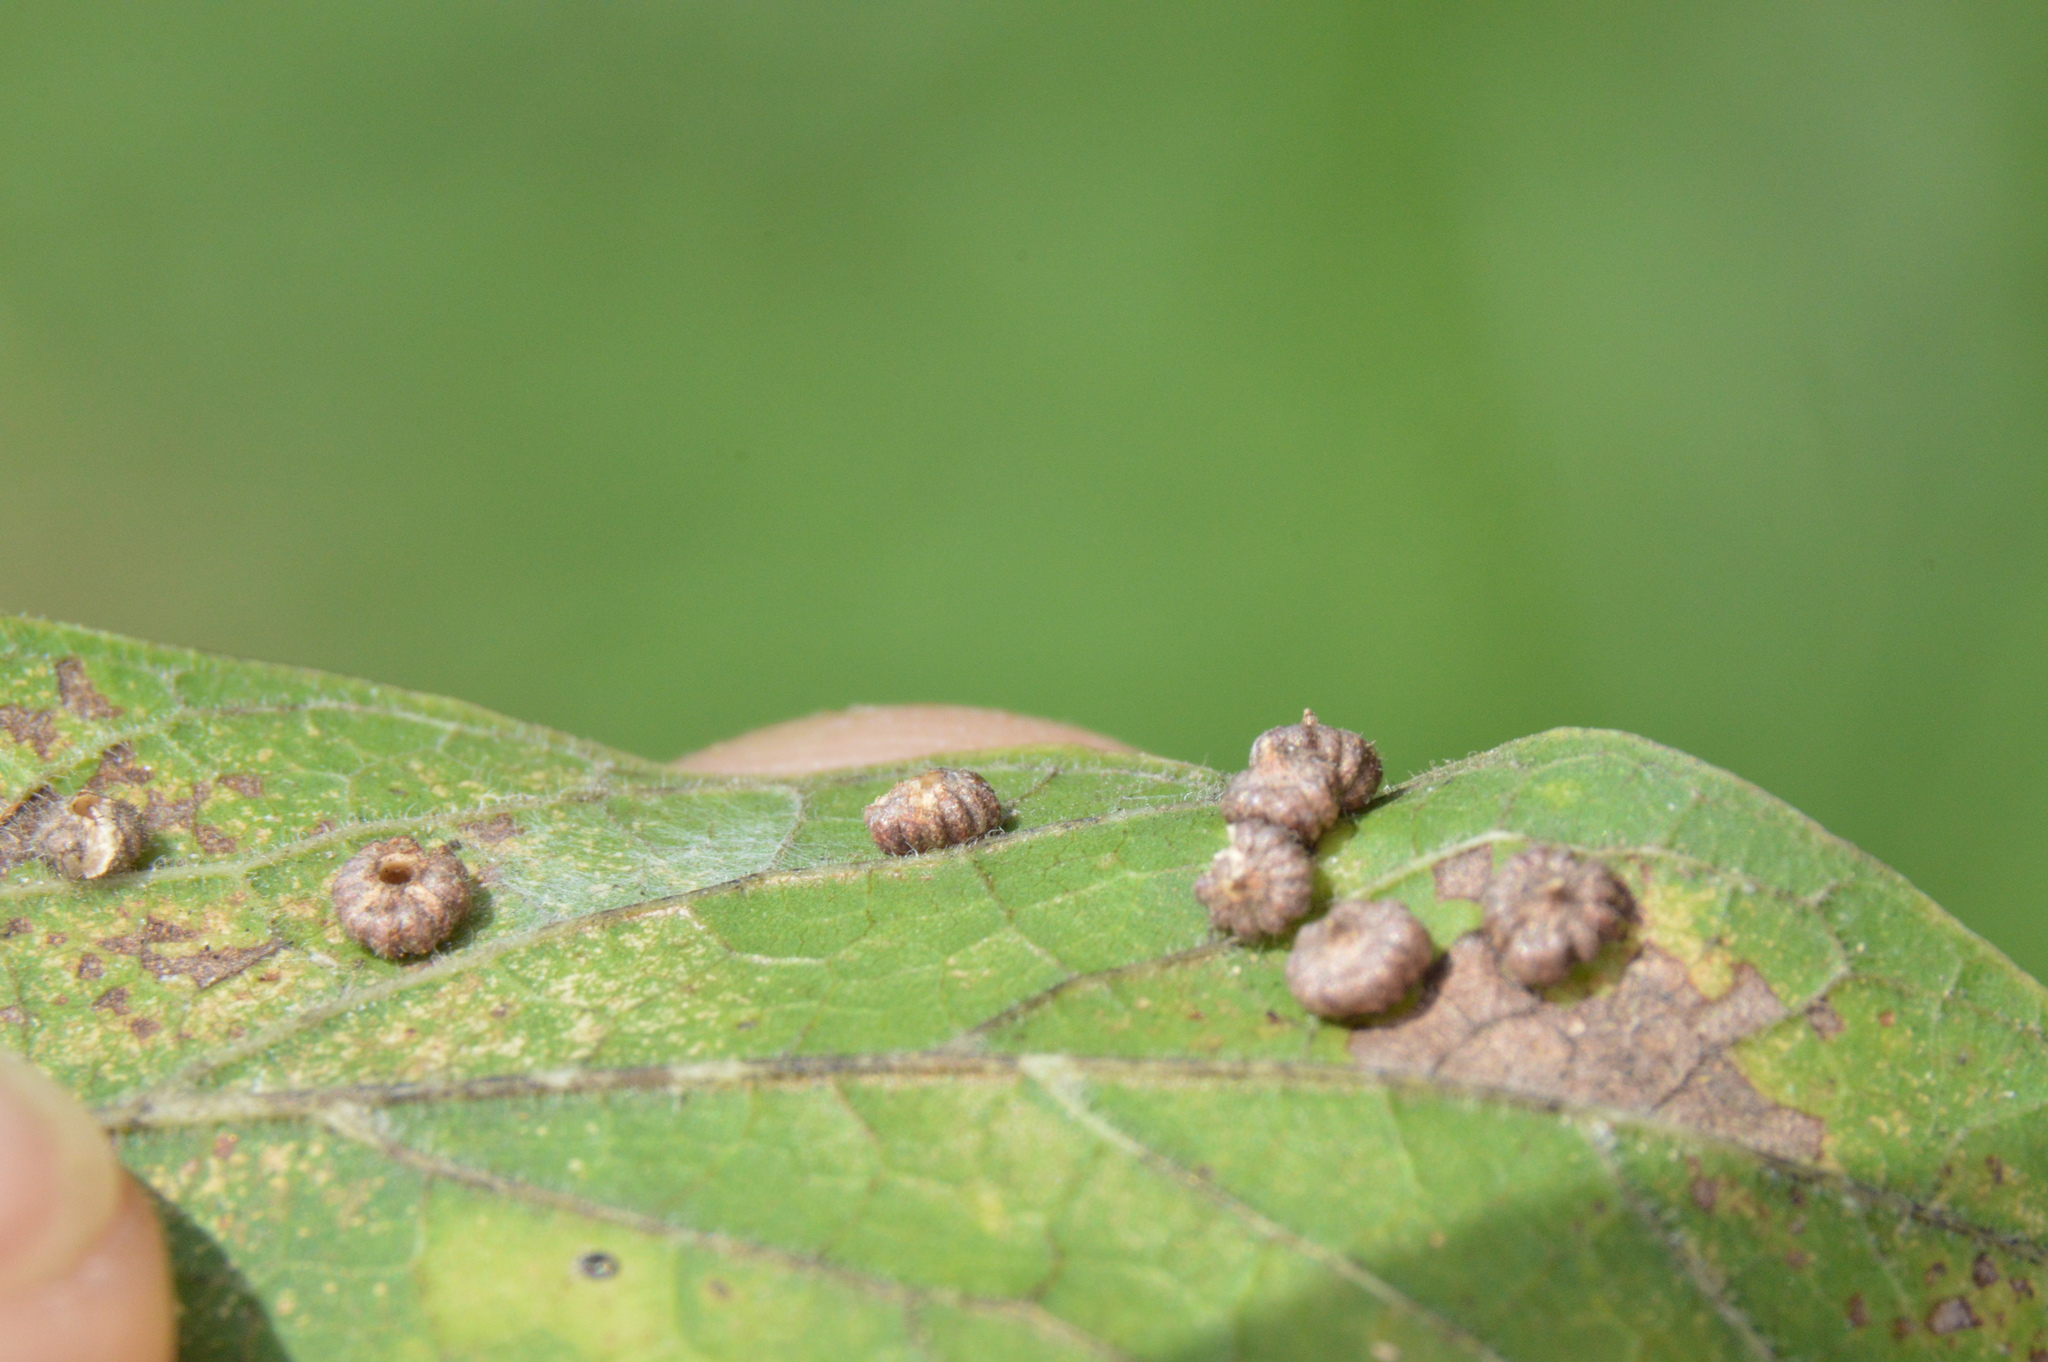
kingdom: Animalia
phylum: Arthropoda
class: Insecta
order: Diptera
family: Cecidomyiidae
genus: Celticecis
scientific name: Celticecis capsularis
